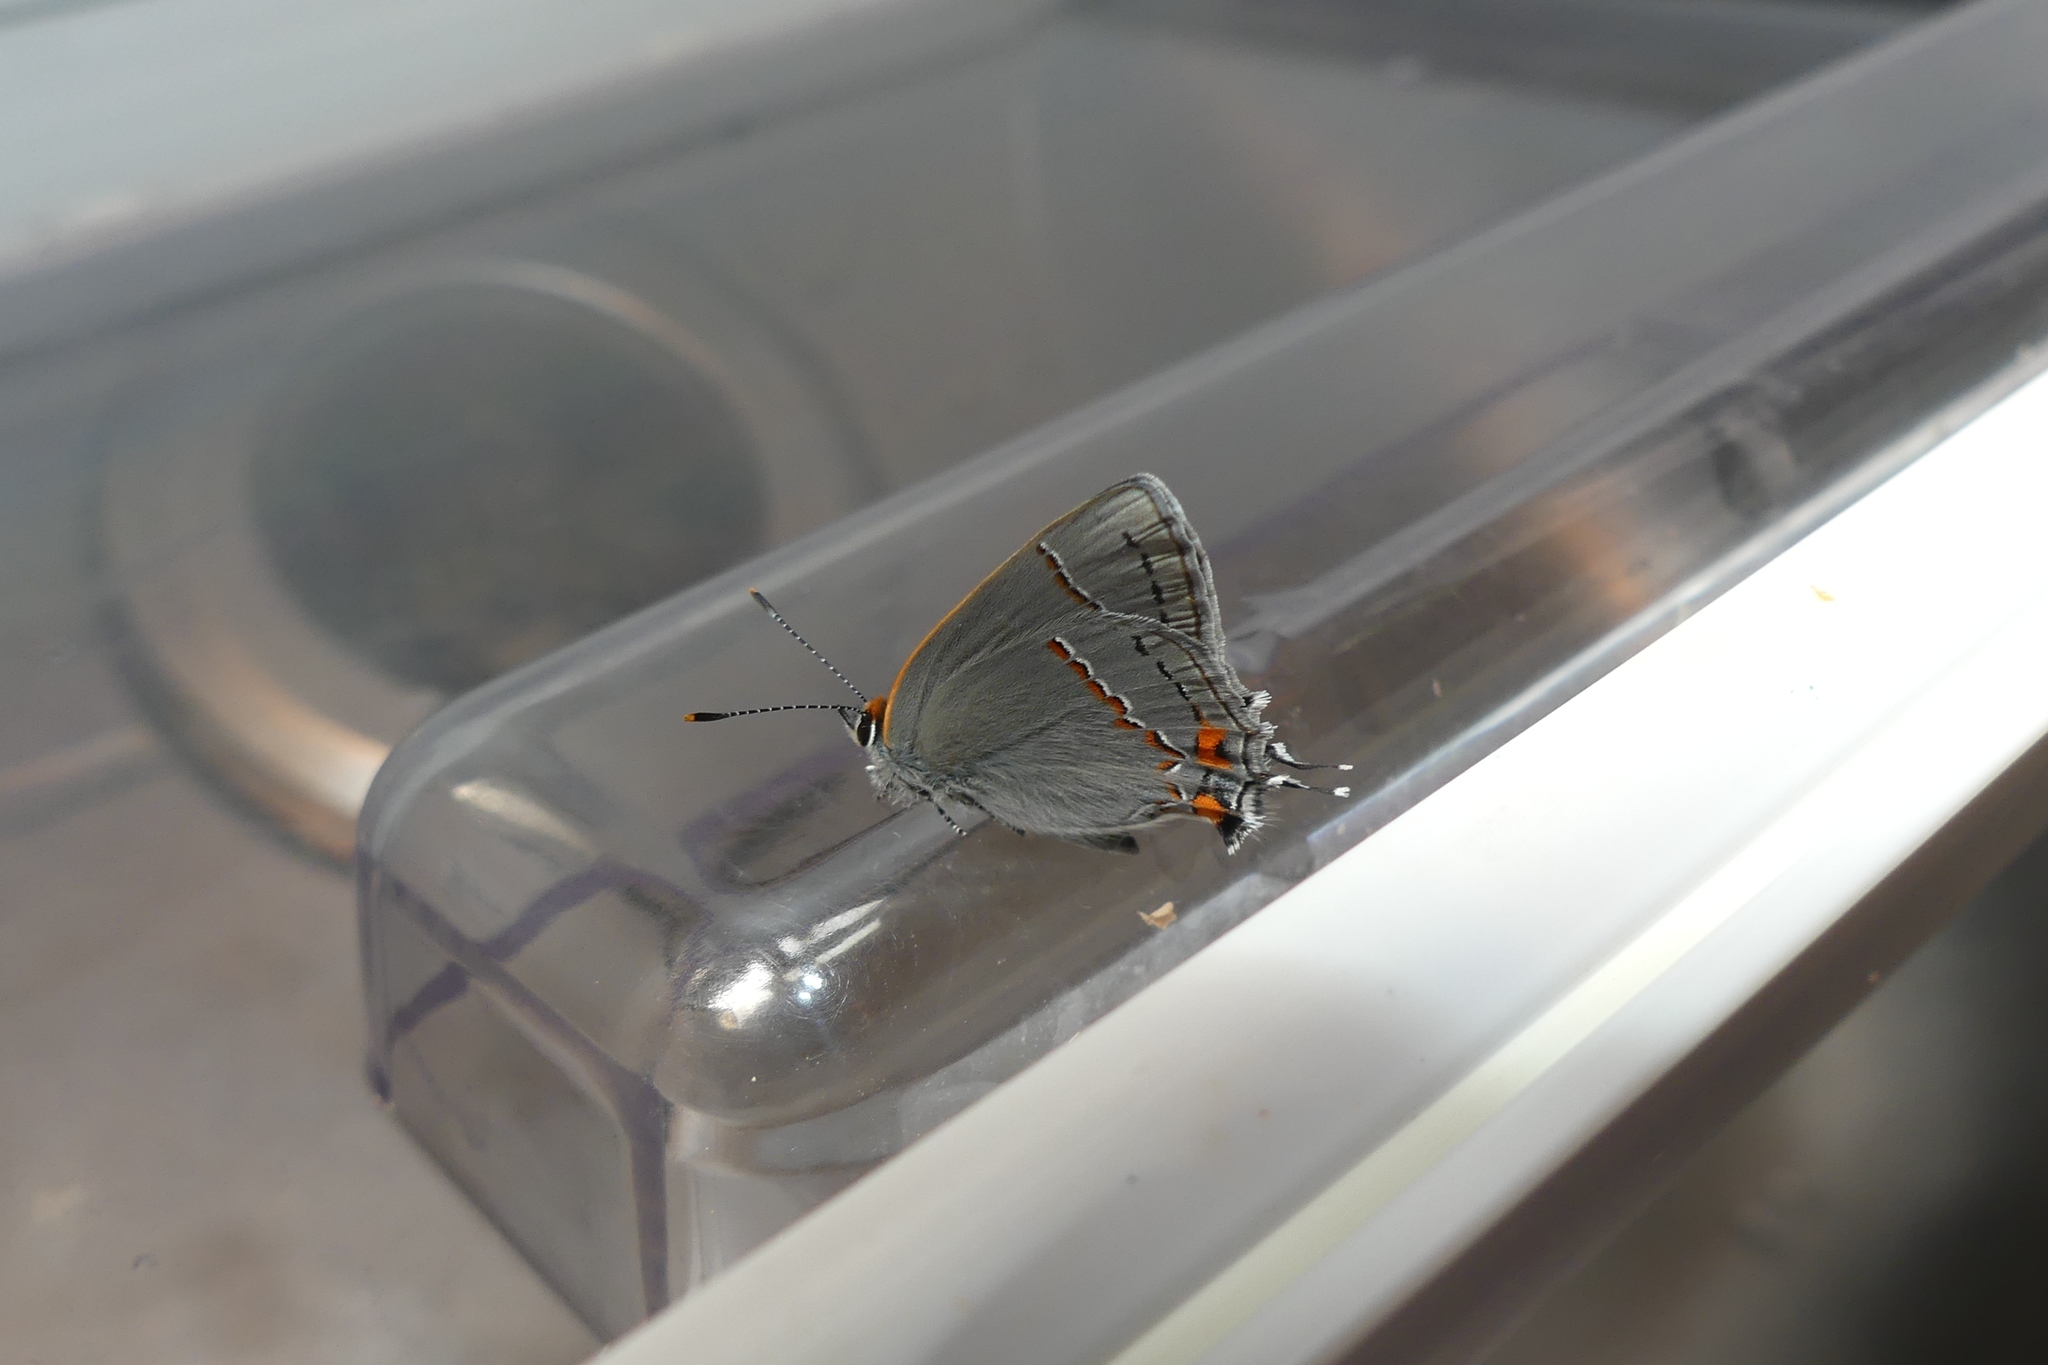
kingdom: Animalia
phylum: Arthropoda
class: Insecta
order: Lepidoptera
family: Lycaenidae
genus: Strymon
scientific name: Strymon melinus
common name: Gray hairstreak
